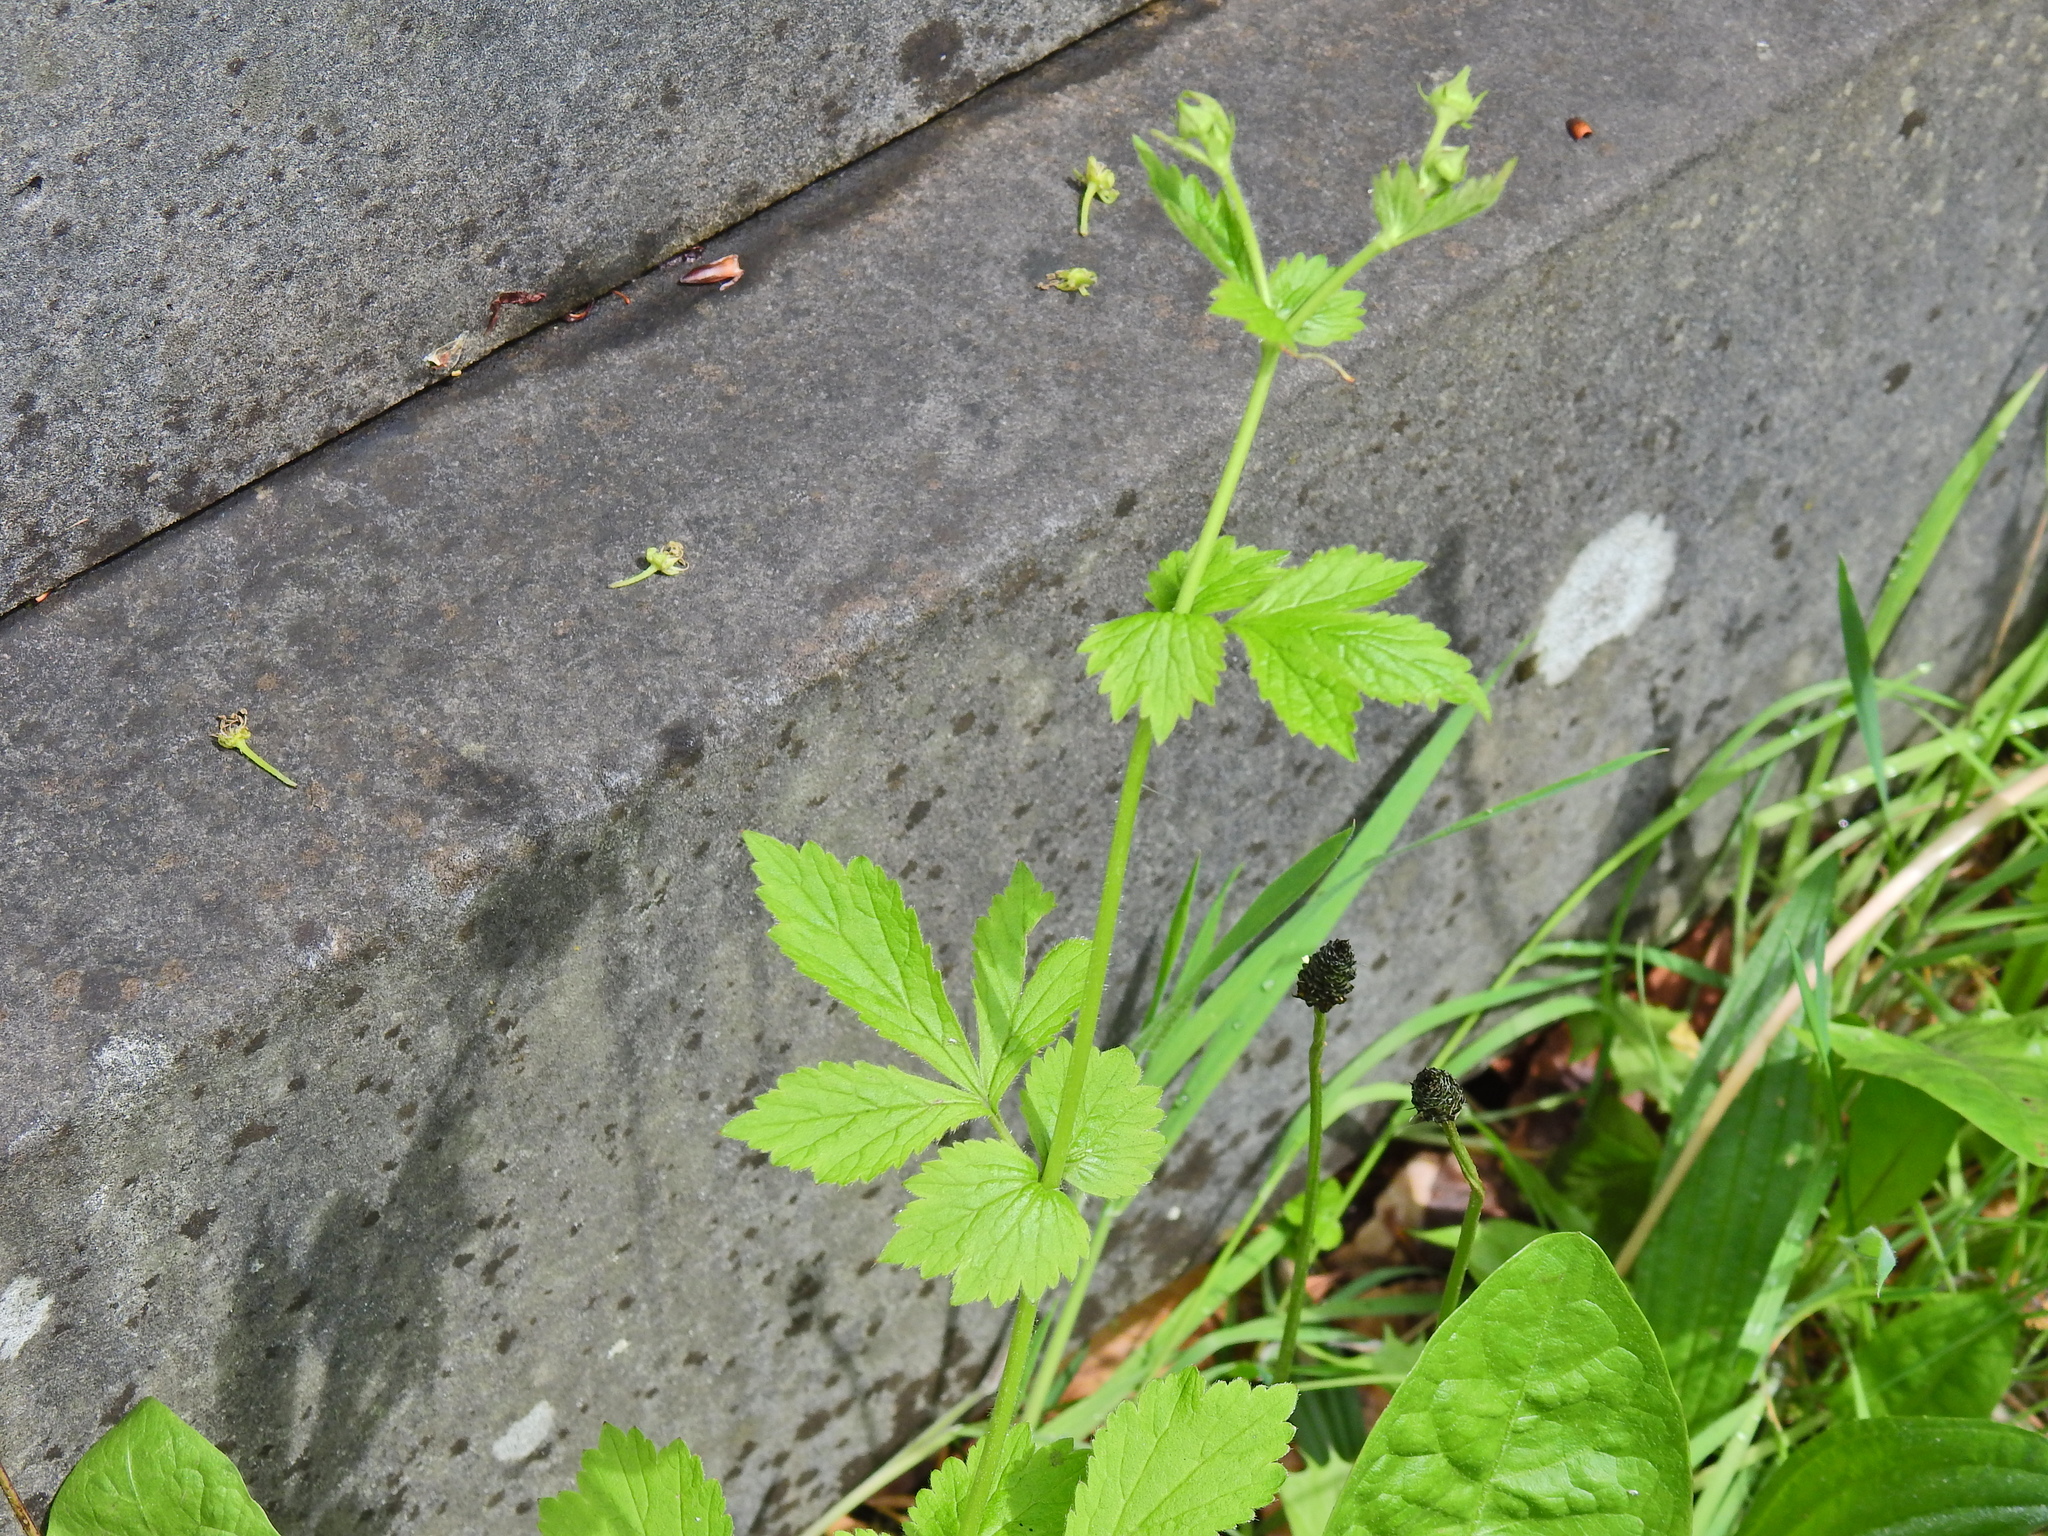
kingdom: Plantae
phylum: Tracheophyta
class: Magnoliopsida
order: Rosales
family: Rosaceae
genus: Geum
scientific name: Geum urbanum
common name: Wood avens
